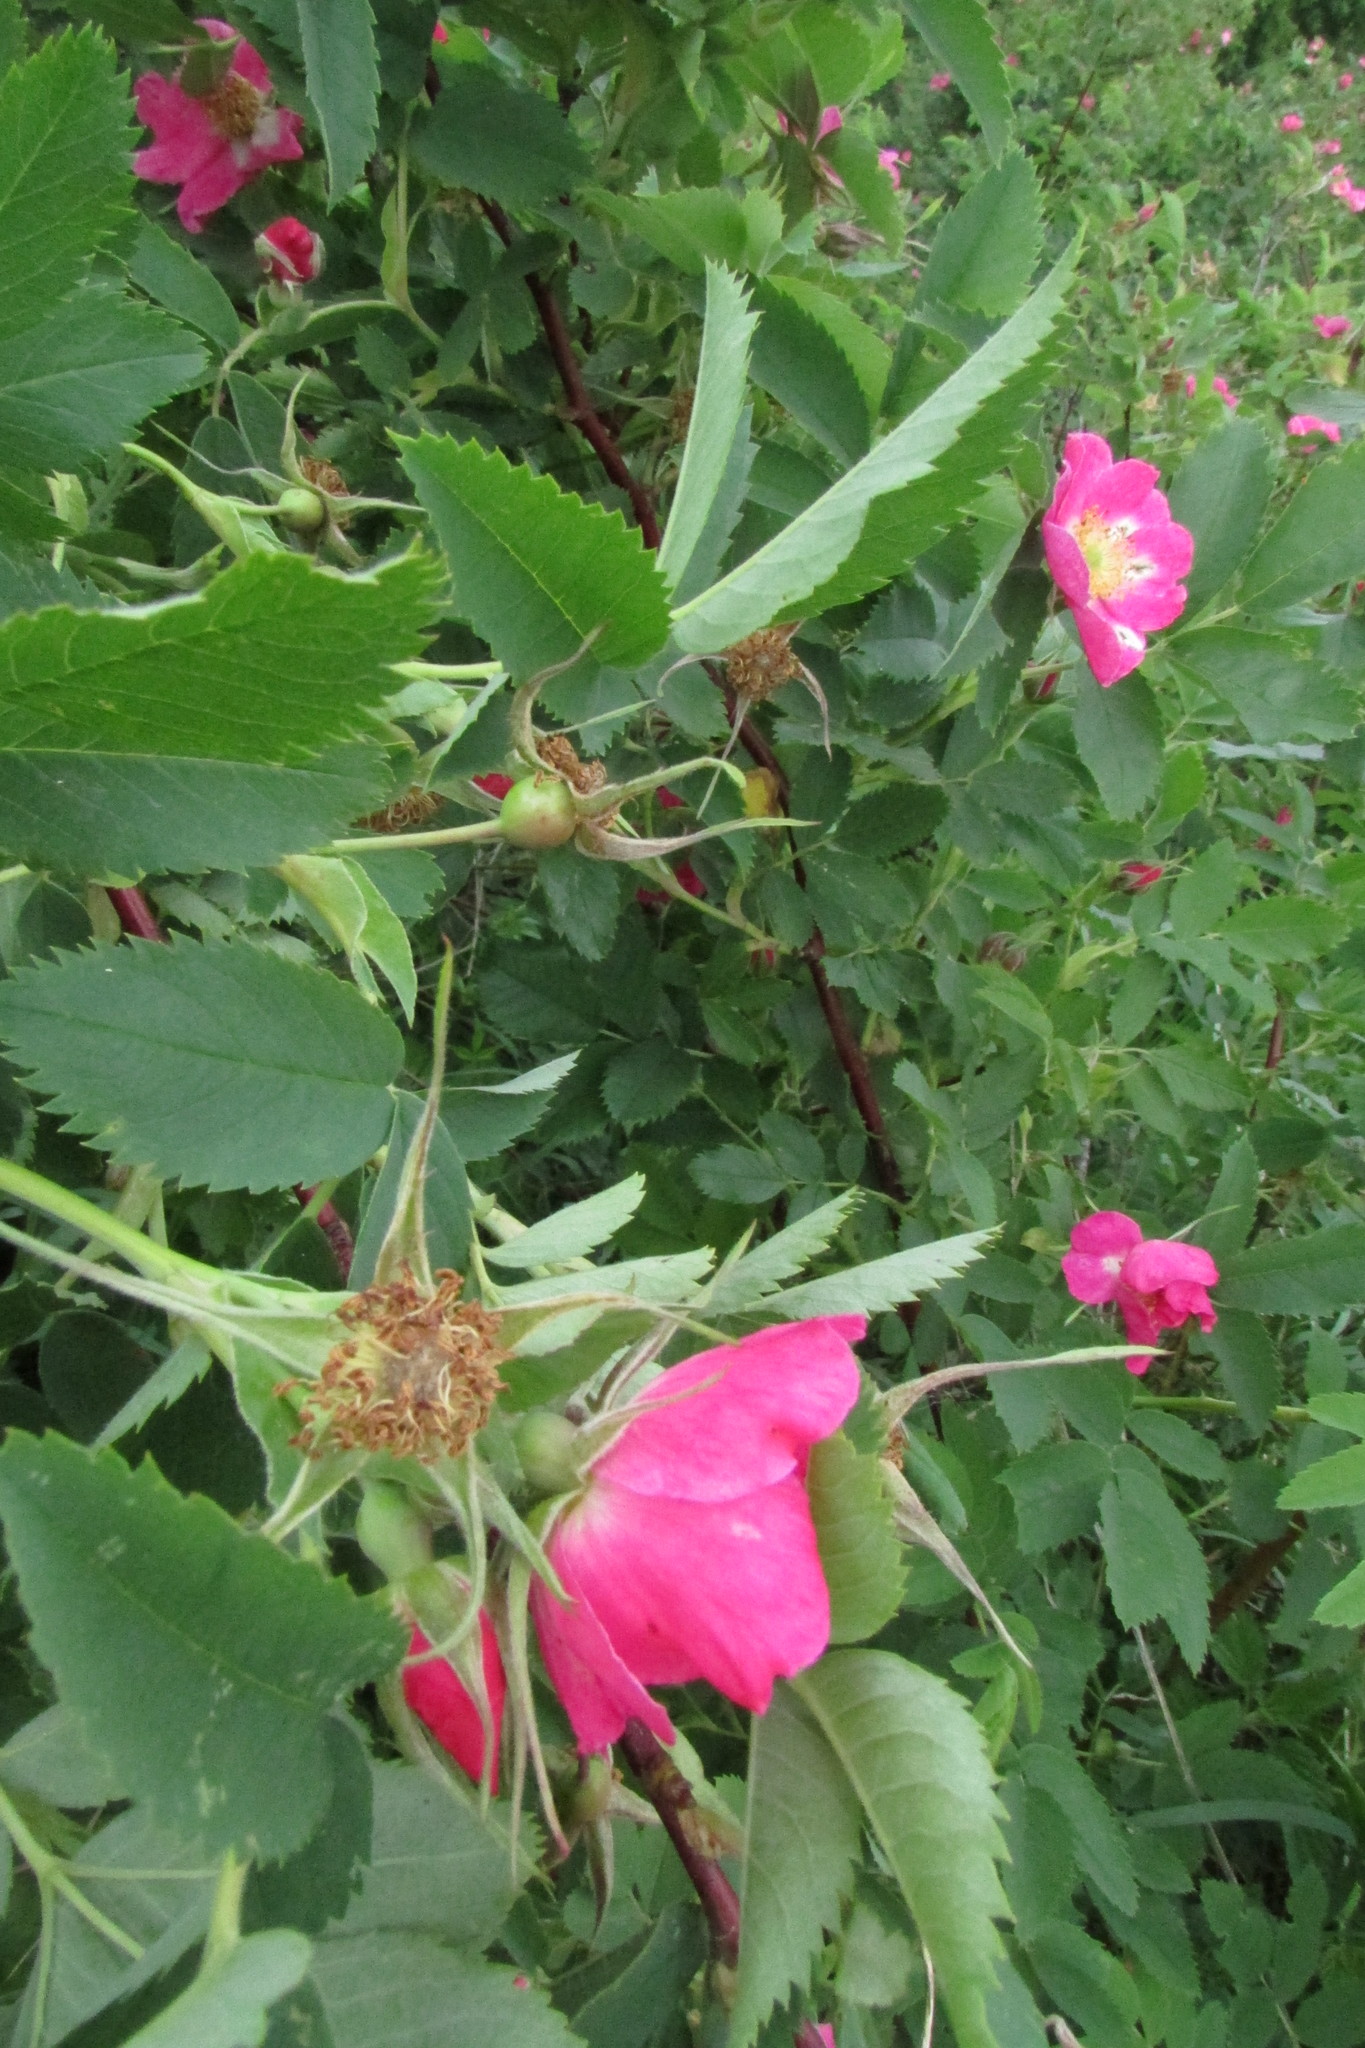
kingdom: Plantae
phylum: Tracheophyta
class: Magnoliopsida
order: Rosales
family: Rosaceae
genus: Rosa
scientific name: Rosa majalis
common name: Cinnamon rose
